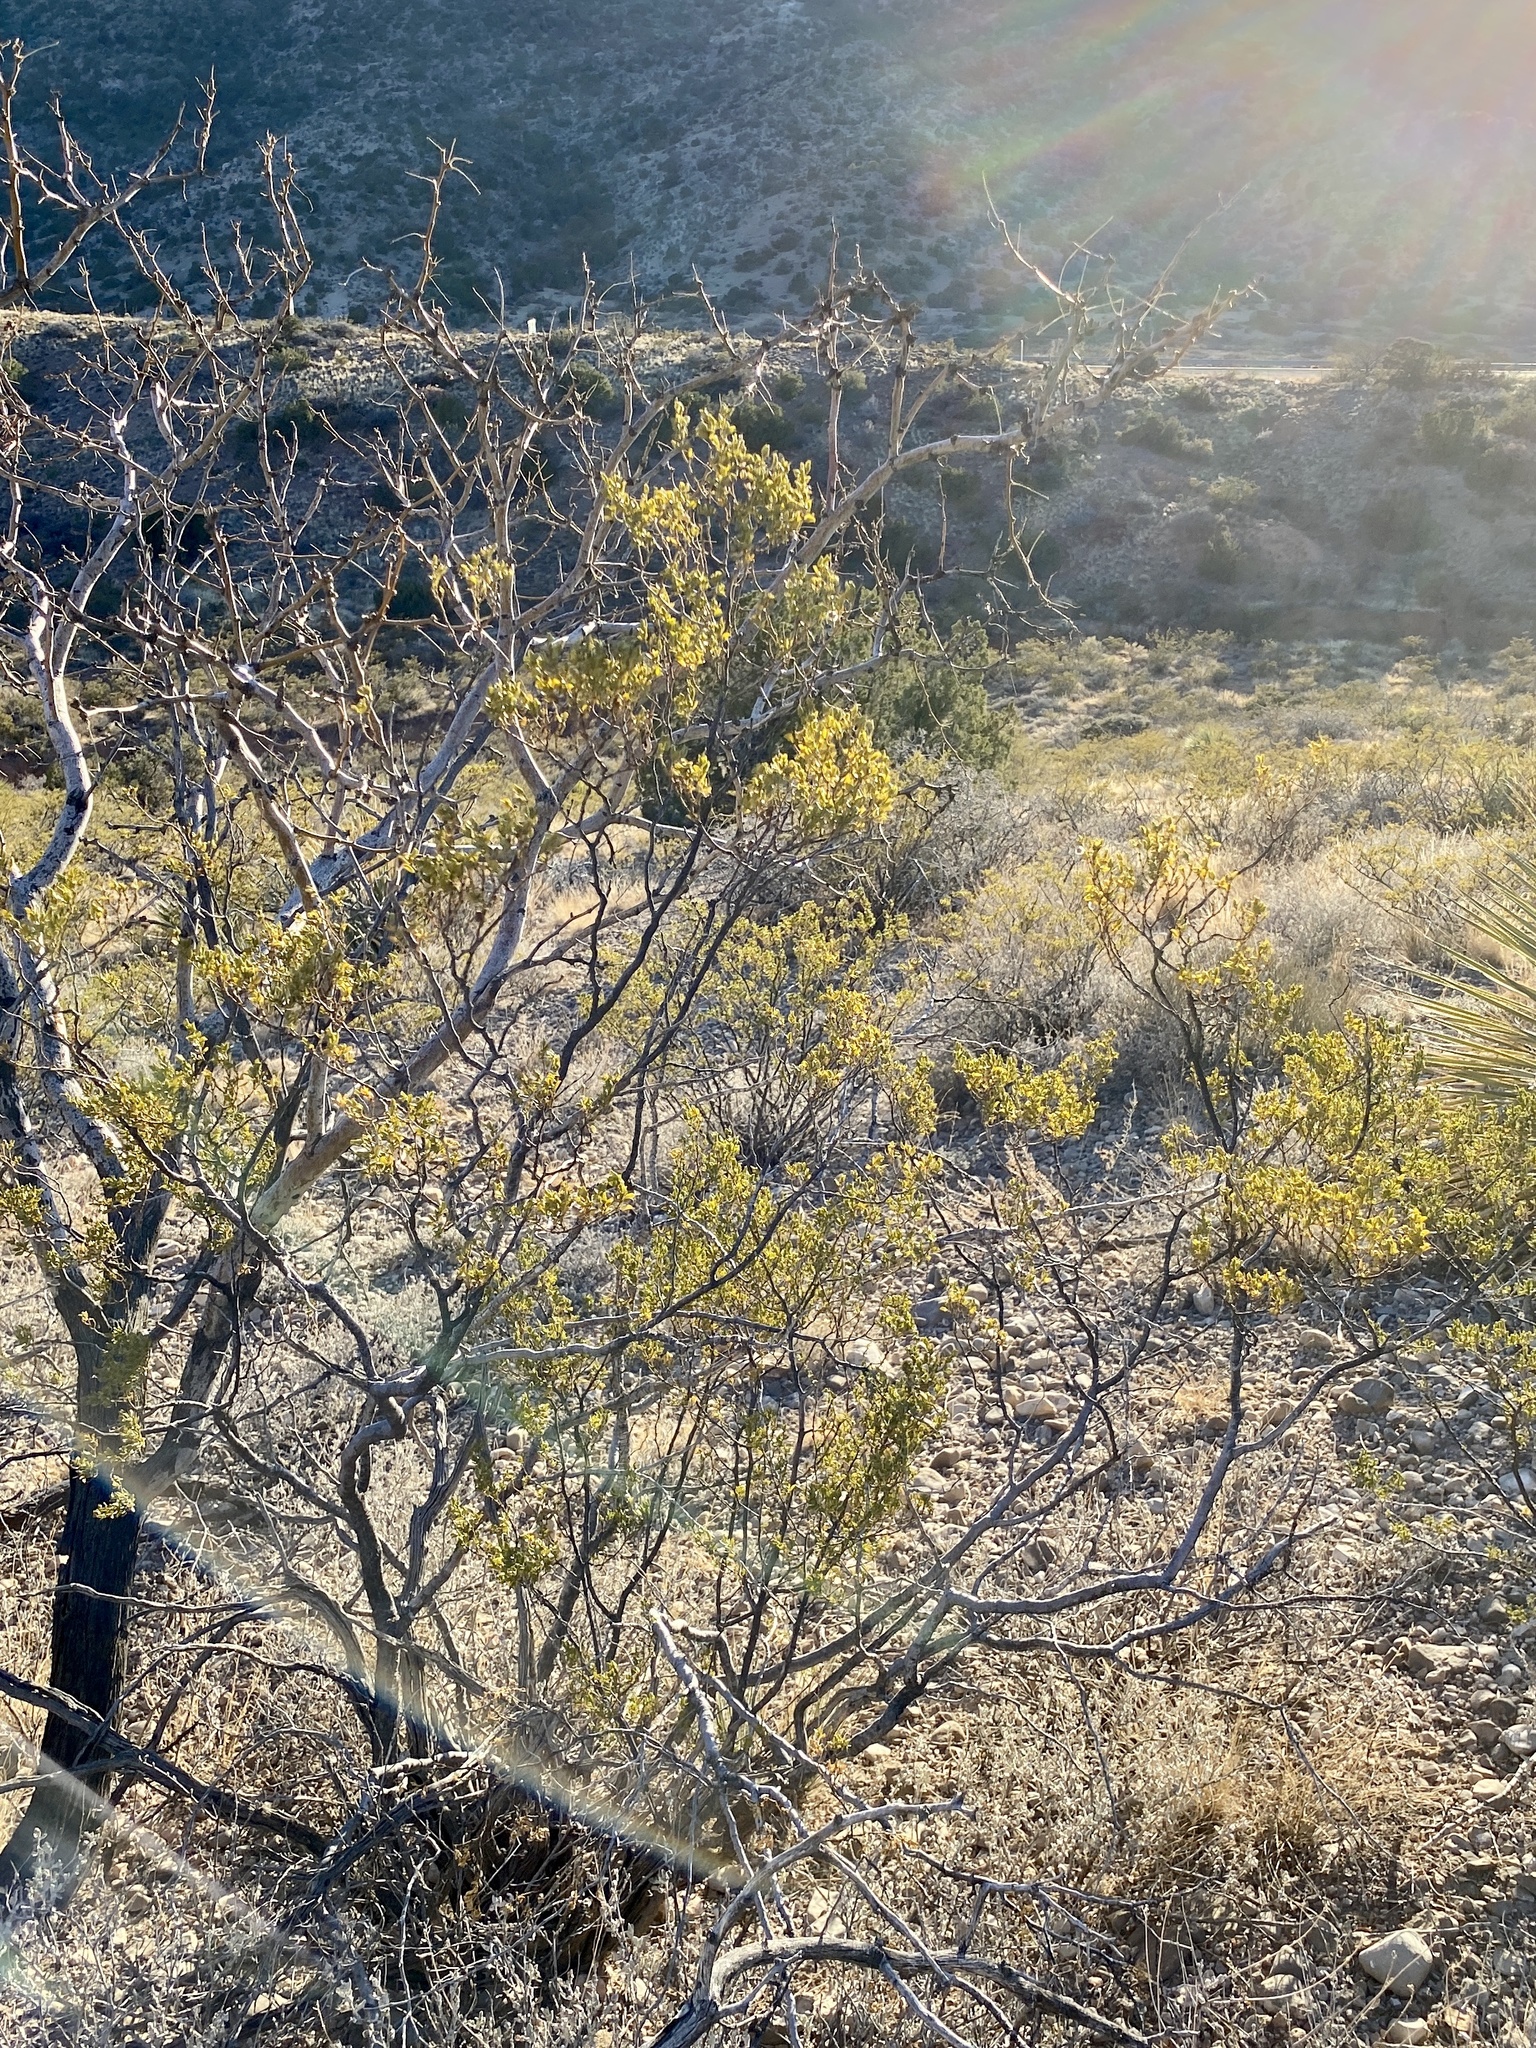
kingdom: Plantae
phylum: Tracheophyta
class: Magnoliopsida
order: Zygophyllales
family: Zygophyllaceae
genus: Larrea
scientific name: Larrea tridentata
